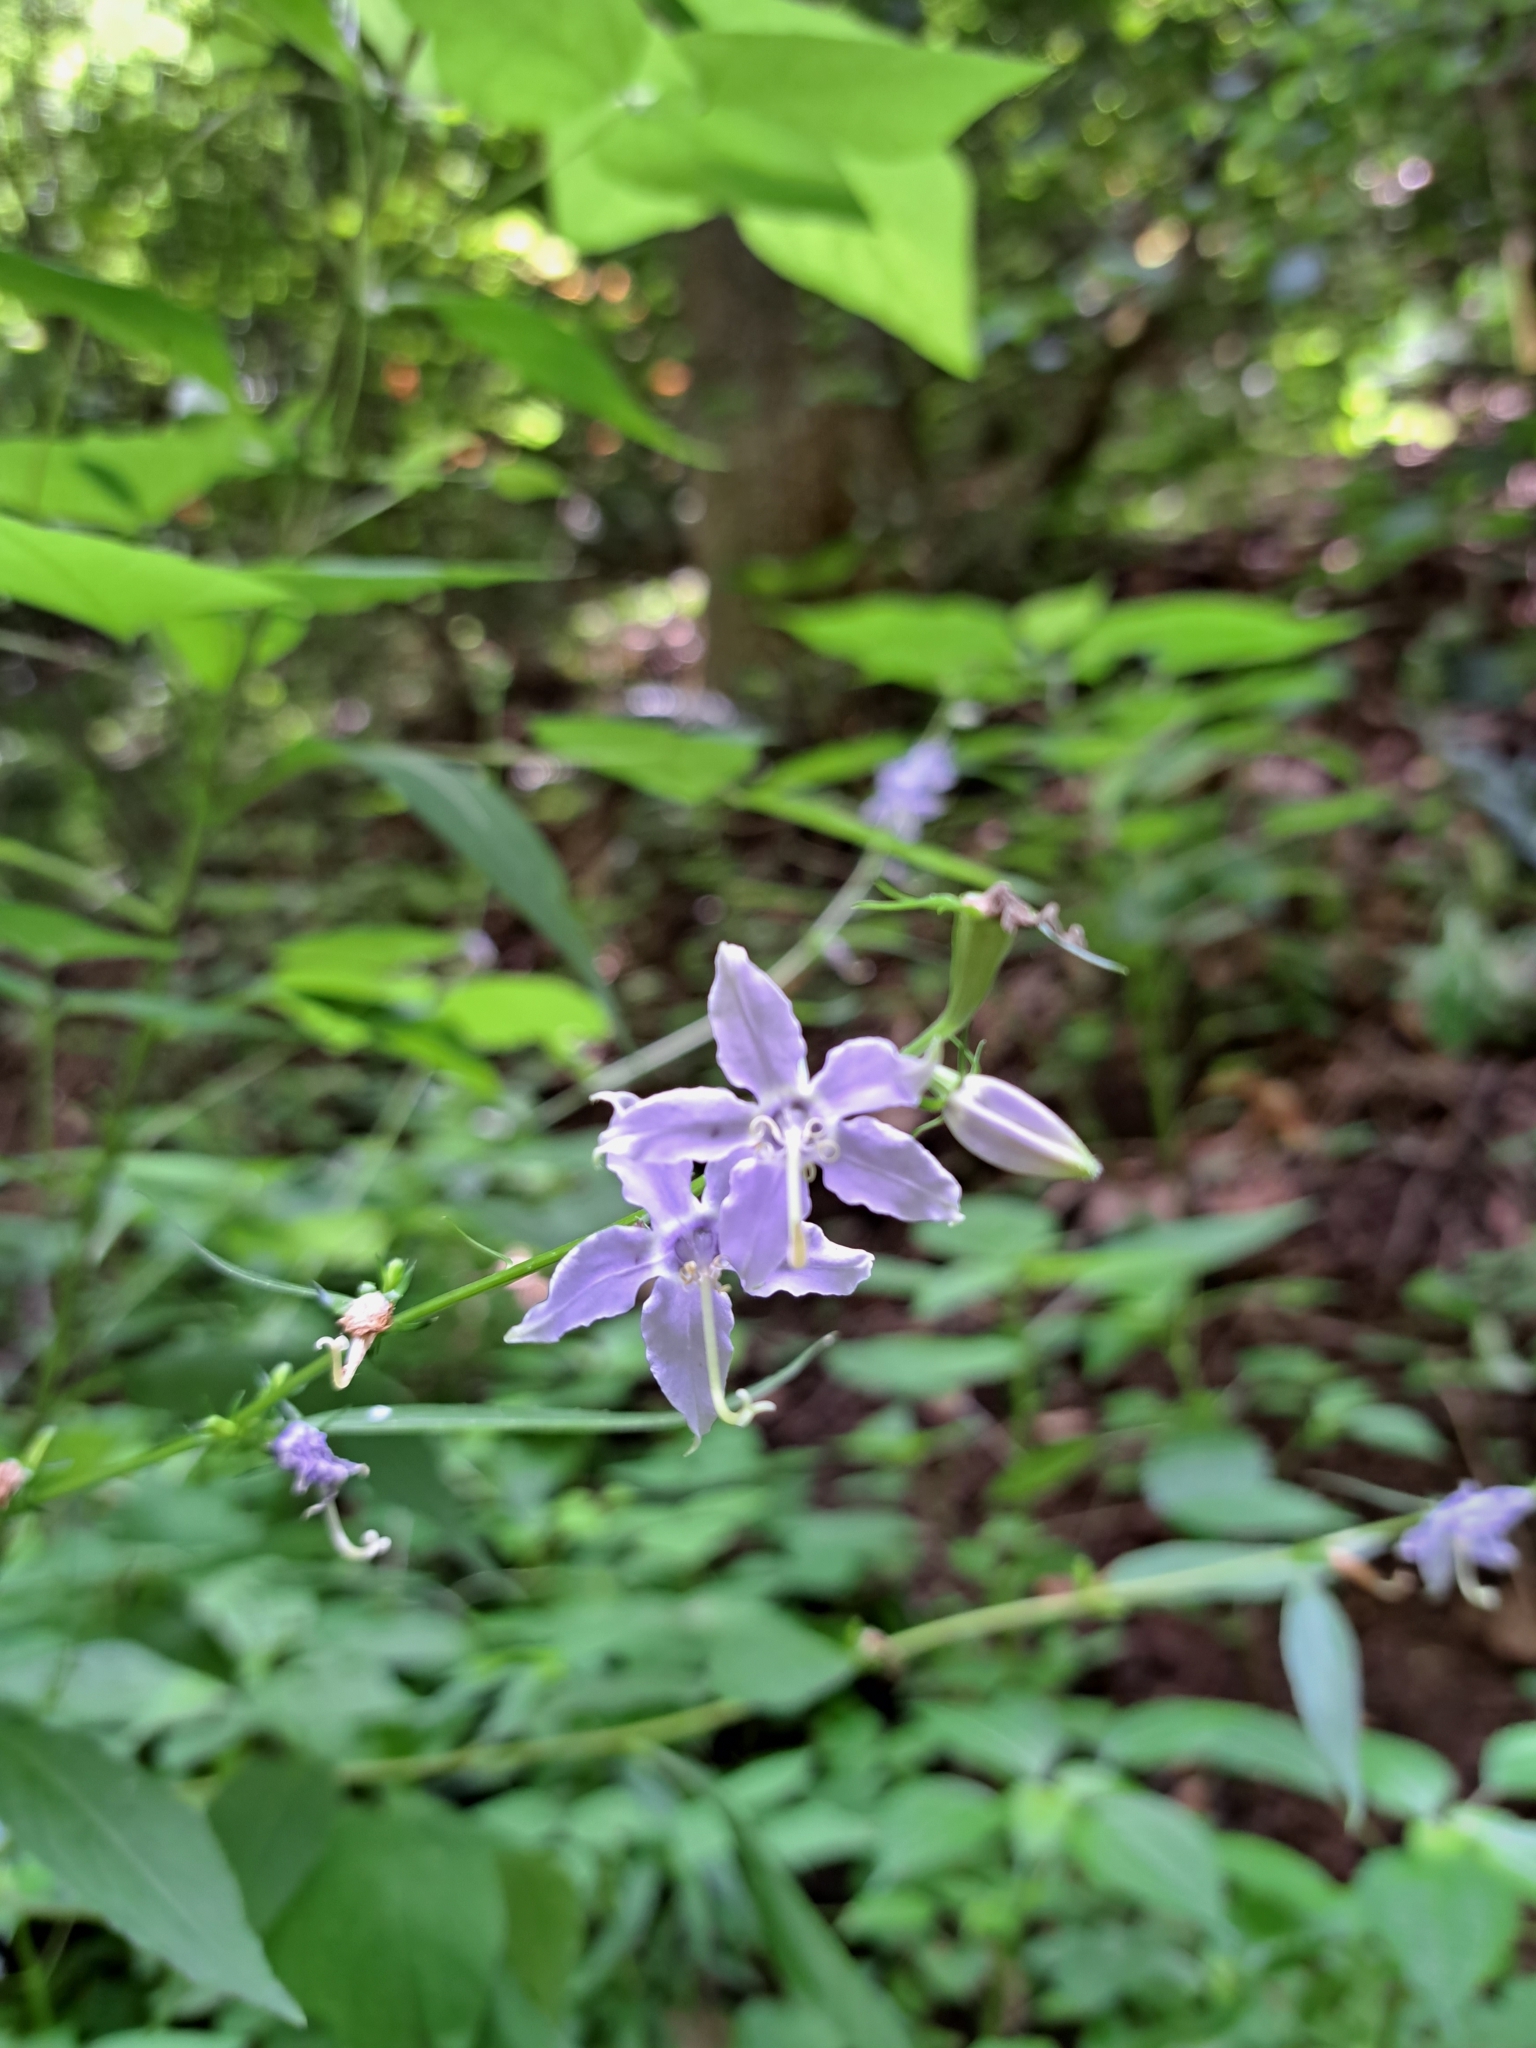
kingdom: Plantae
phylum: Tracheophyta
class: Magnoliopsida
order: Asterales
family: Campanulaceae
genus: Campanulastrum
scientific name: Campanulastrum americanum
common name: American bellflower
